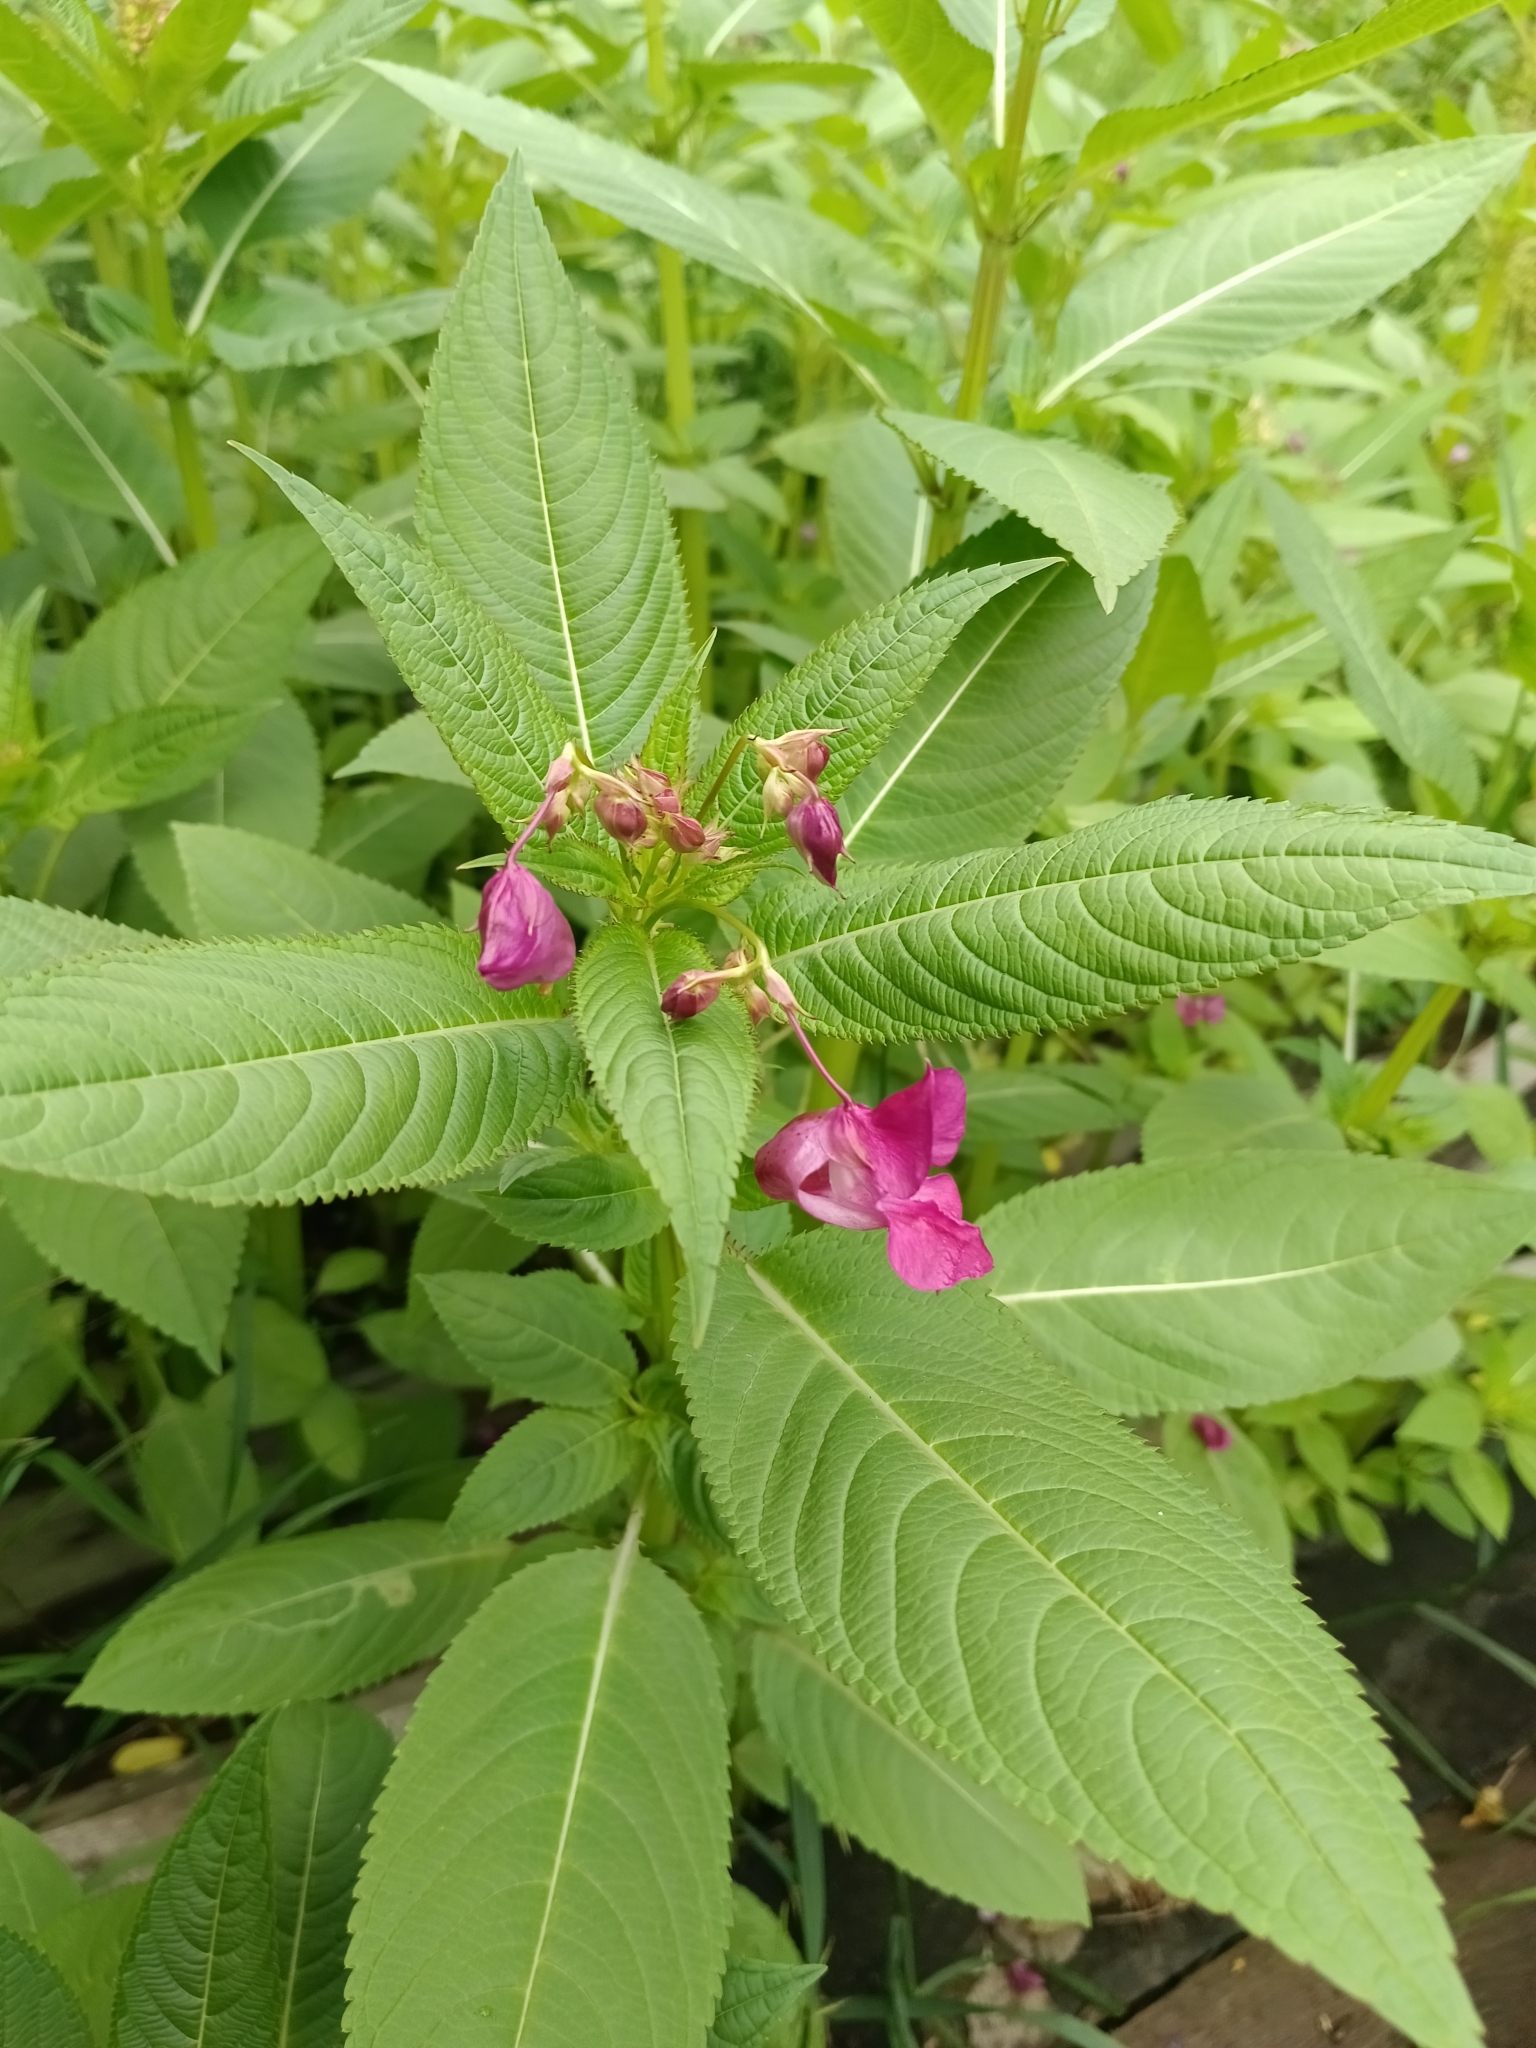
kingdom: Plantae
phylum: Tracheophyta
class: Magnoliopsida
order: Ericales
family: Balsaminaceae
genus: Impatiens
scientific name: Impatiens glandulifera
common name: Himalayan balsam
